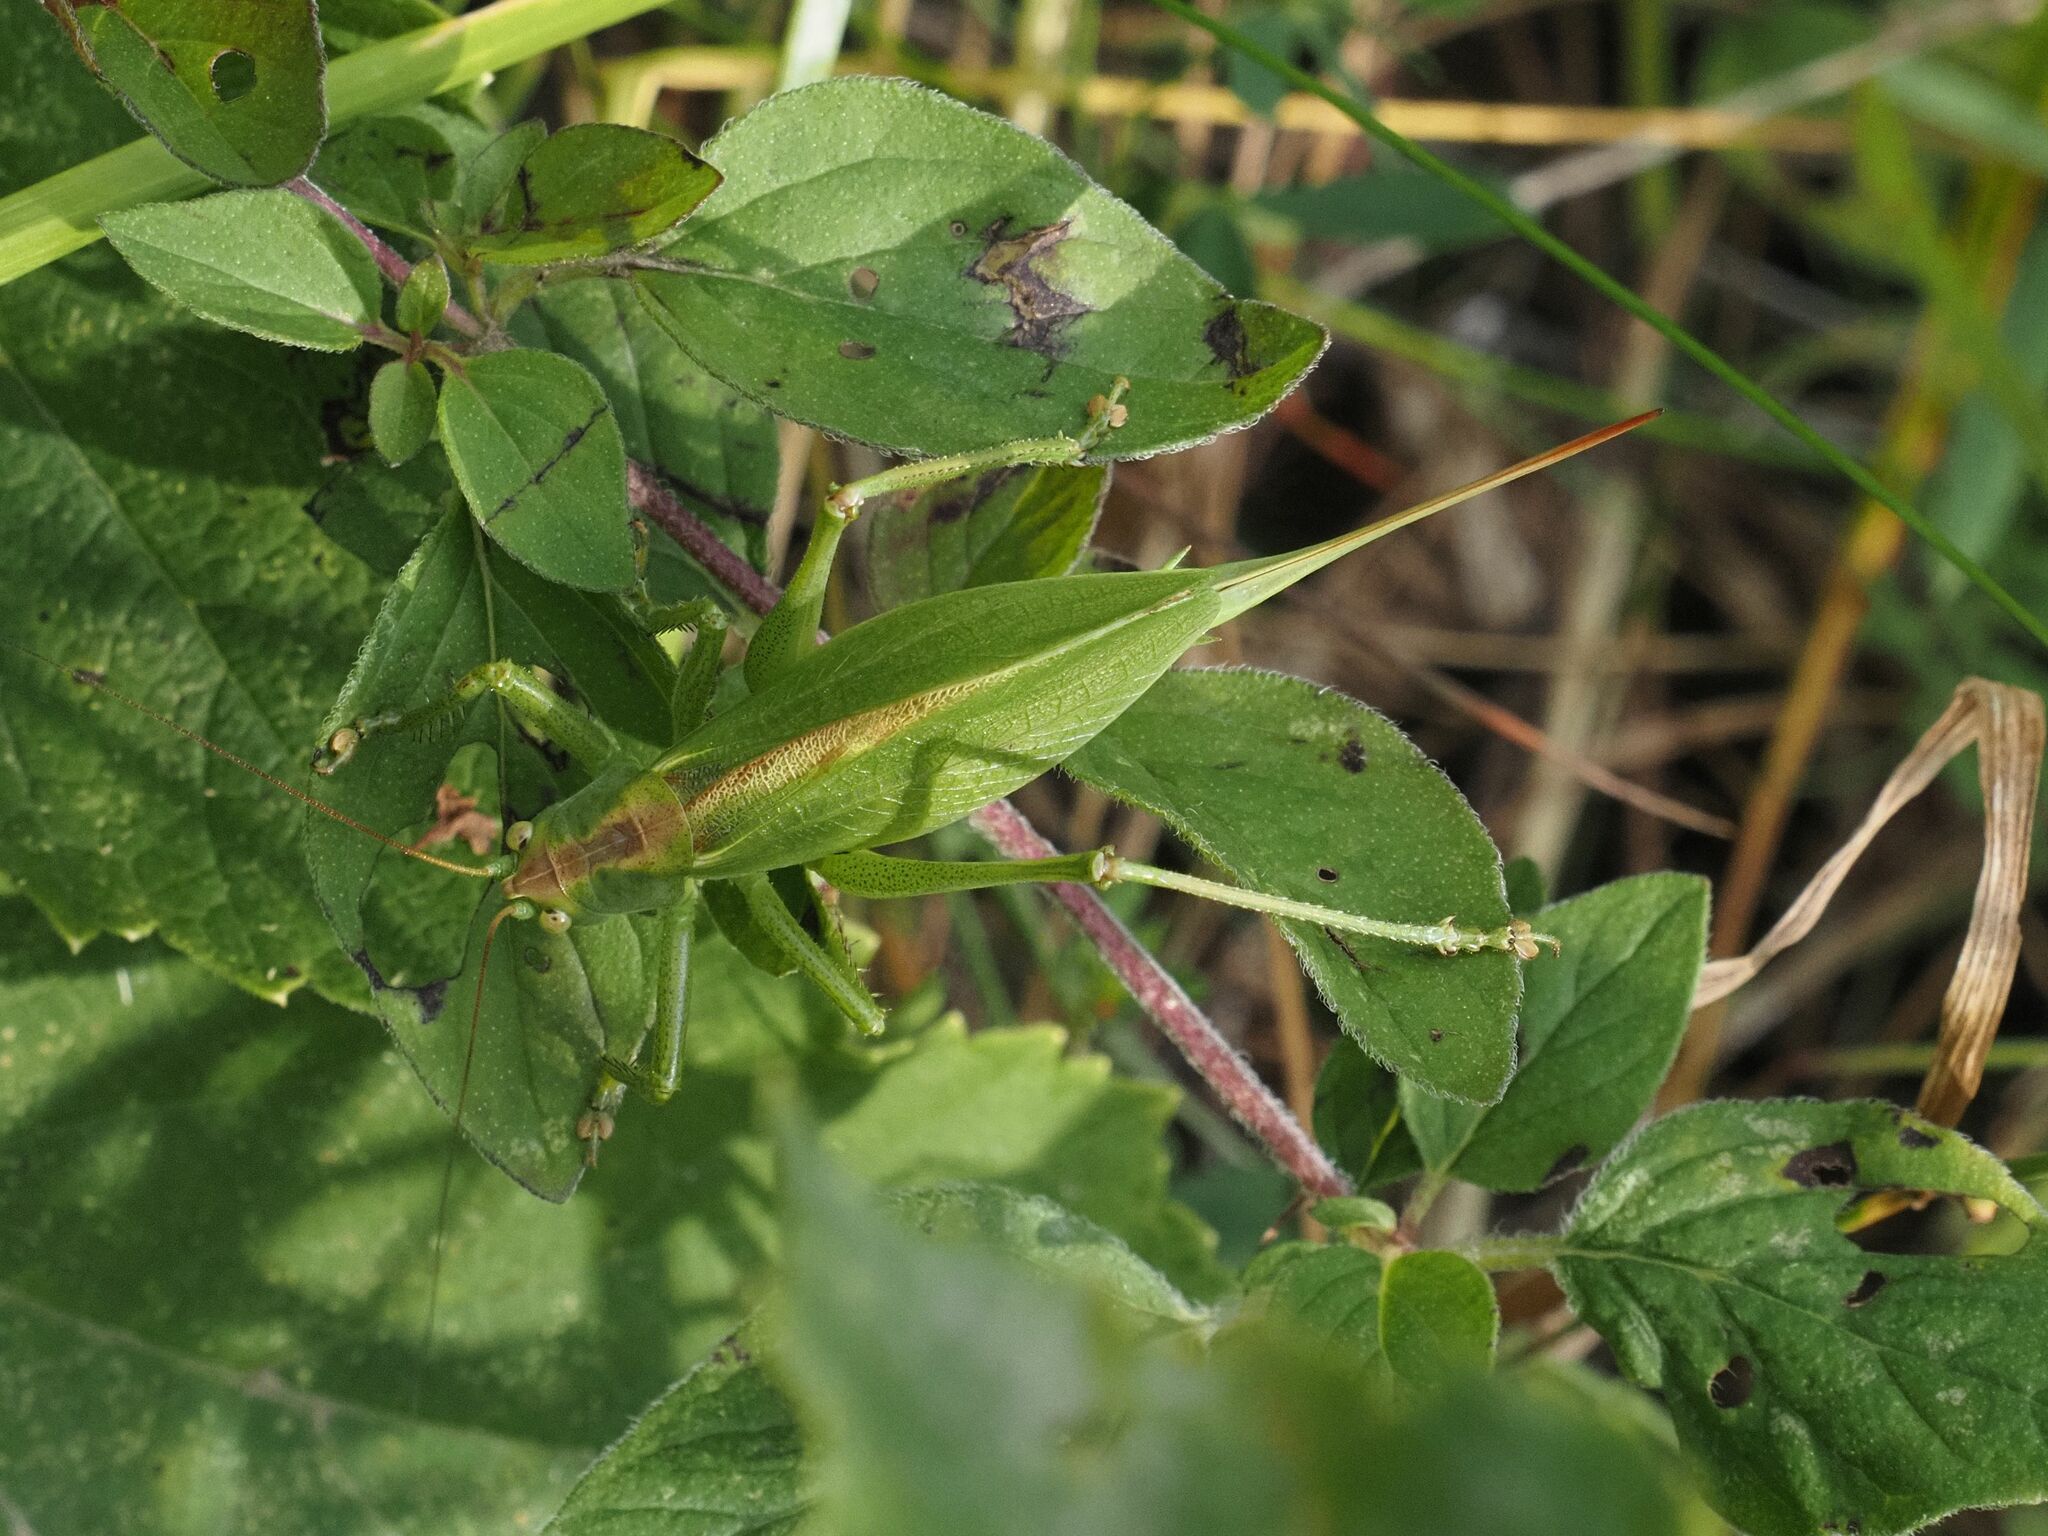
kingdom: Animalia
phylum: Arthropoda
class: Insecta
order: Orthoptera
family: Tettigoniidae
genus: Tettigonia
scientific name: Tettigonia cantans
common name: Upland green bush-cricket
